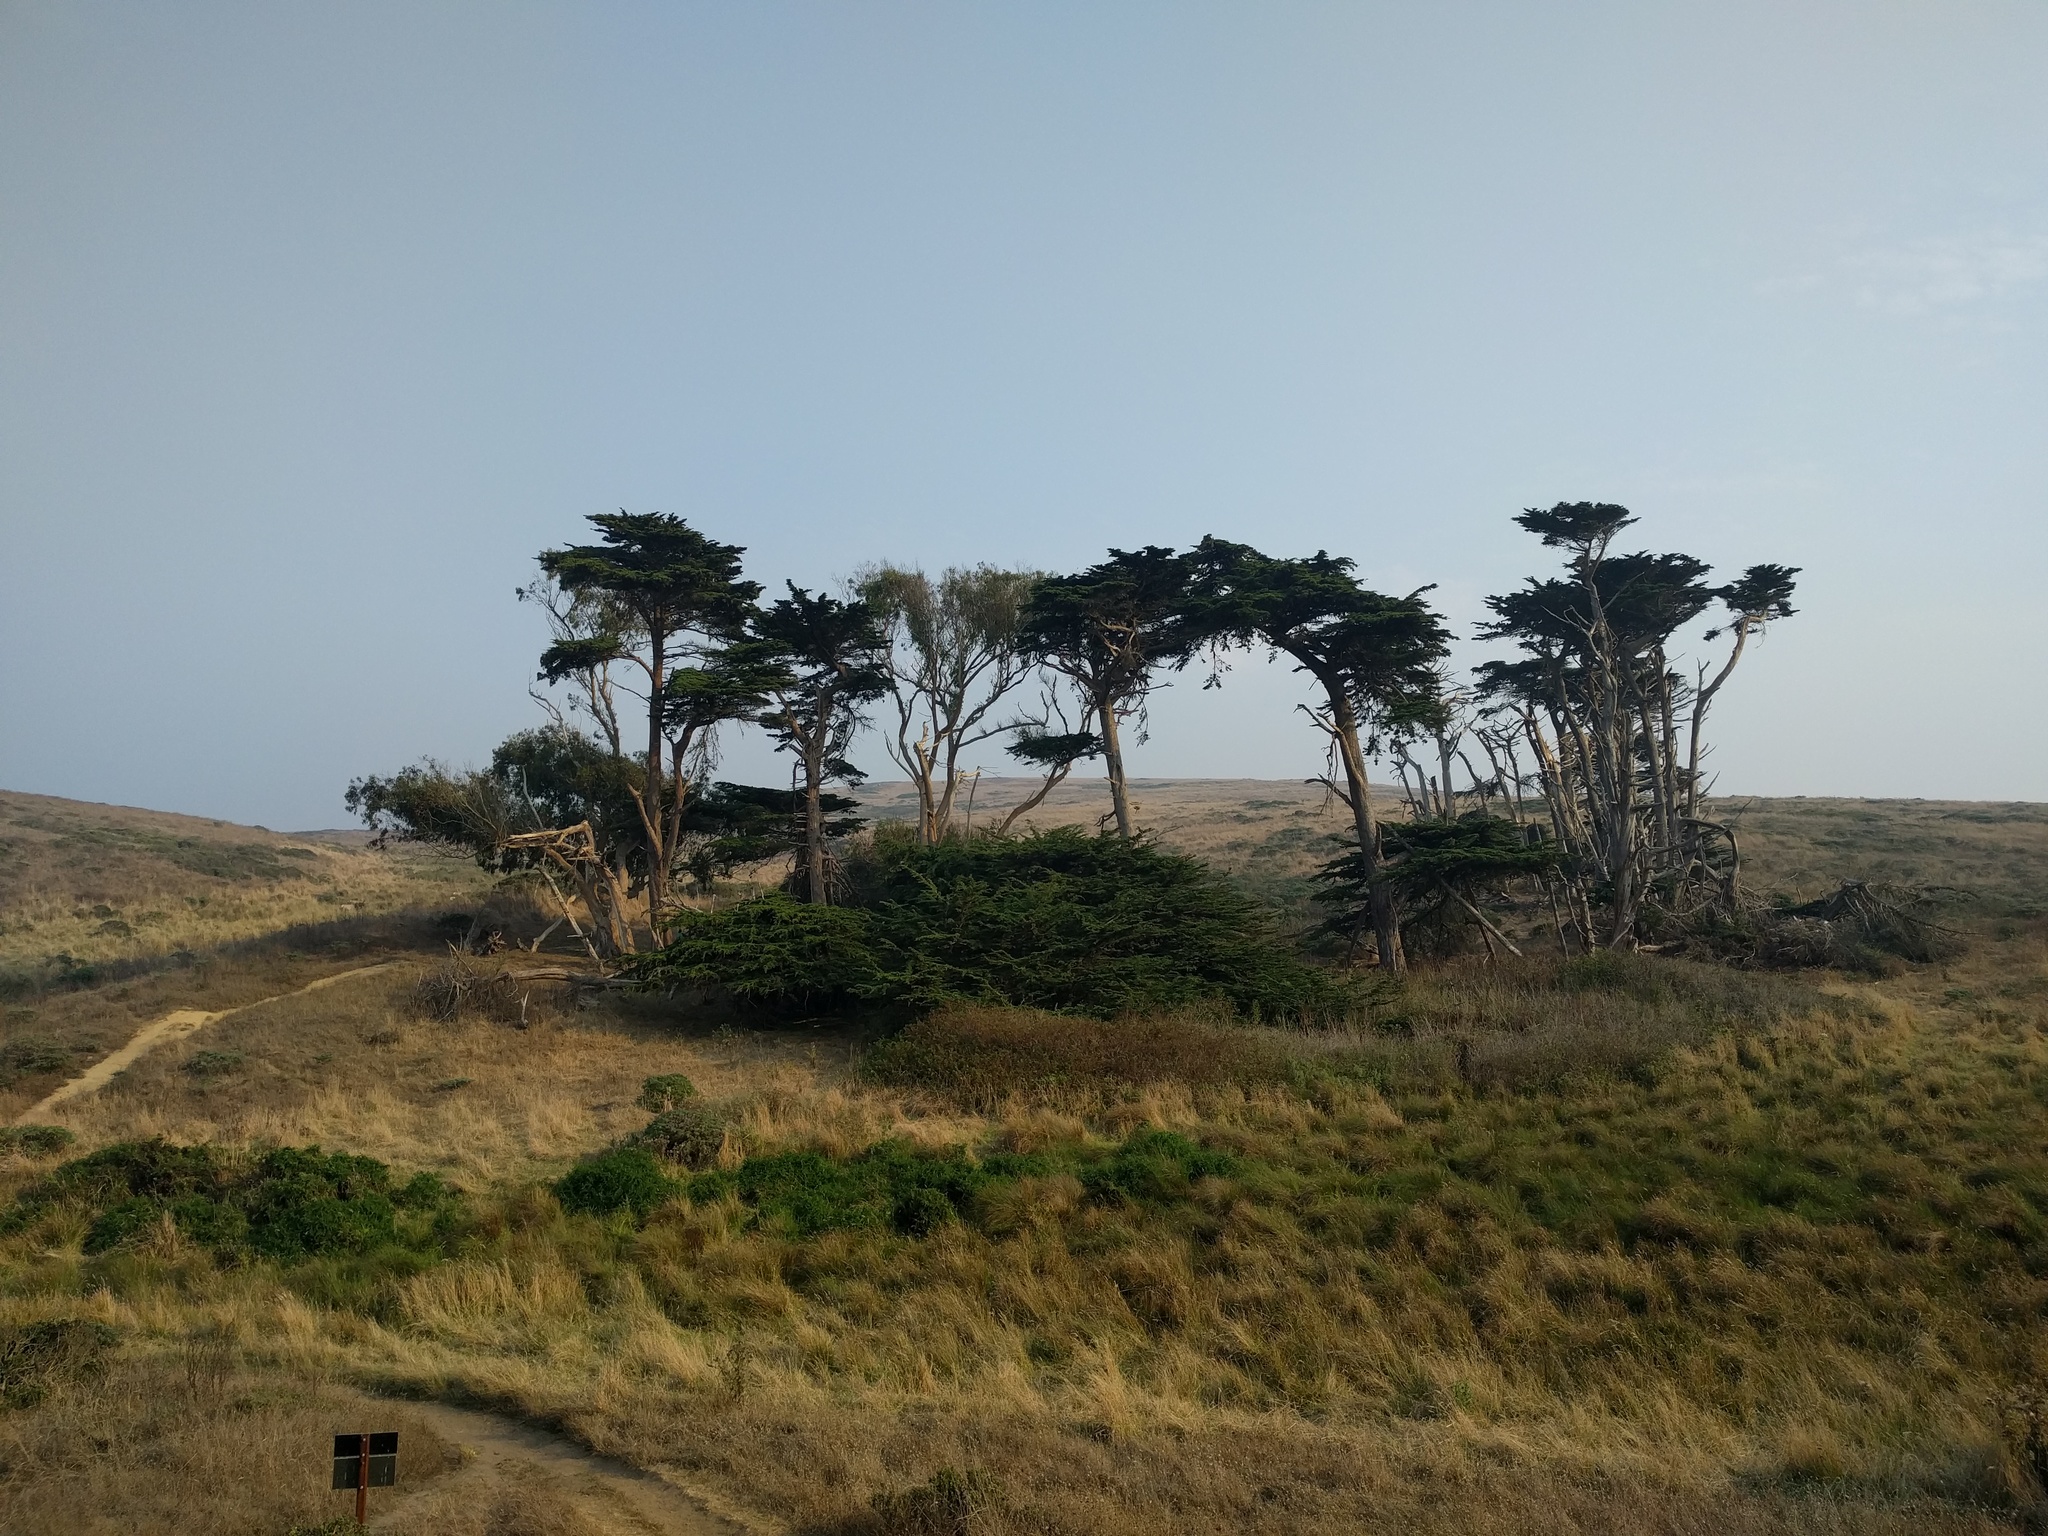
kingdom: Plantae
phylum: Tracheophyta
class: Pinopsida
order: Pinales
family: Cupressaceae
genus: Cupressus
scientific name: Cupressus macrocarpa
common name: Monterey cypress
